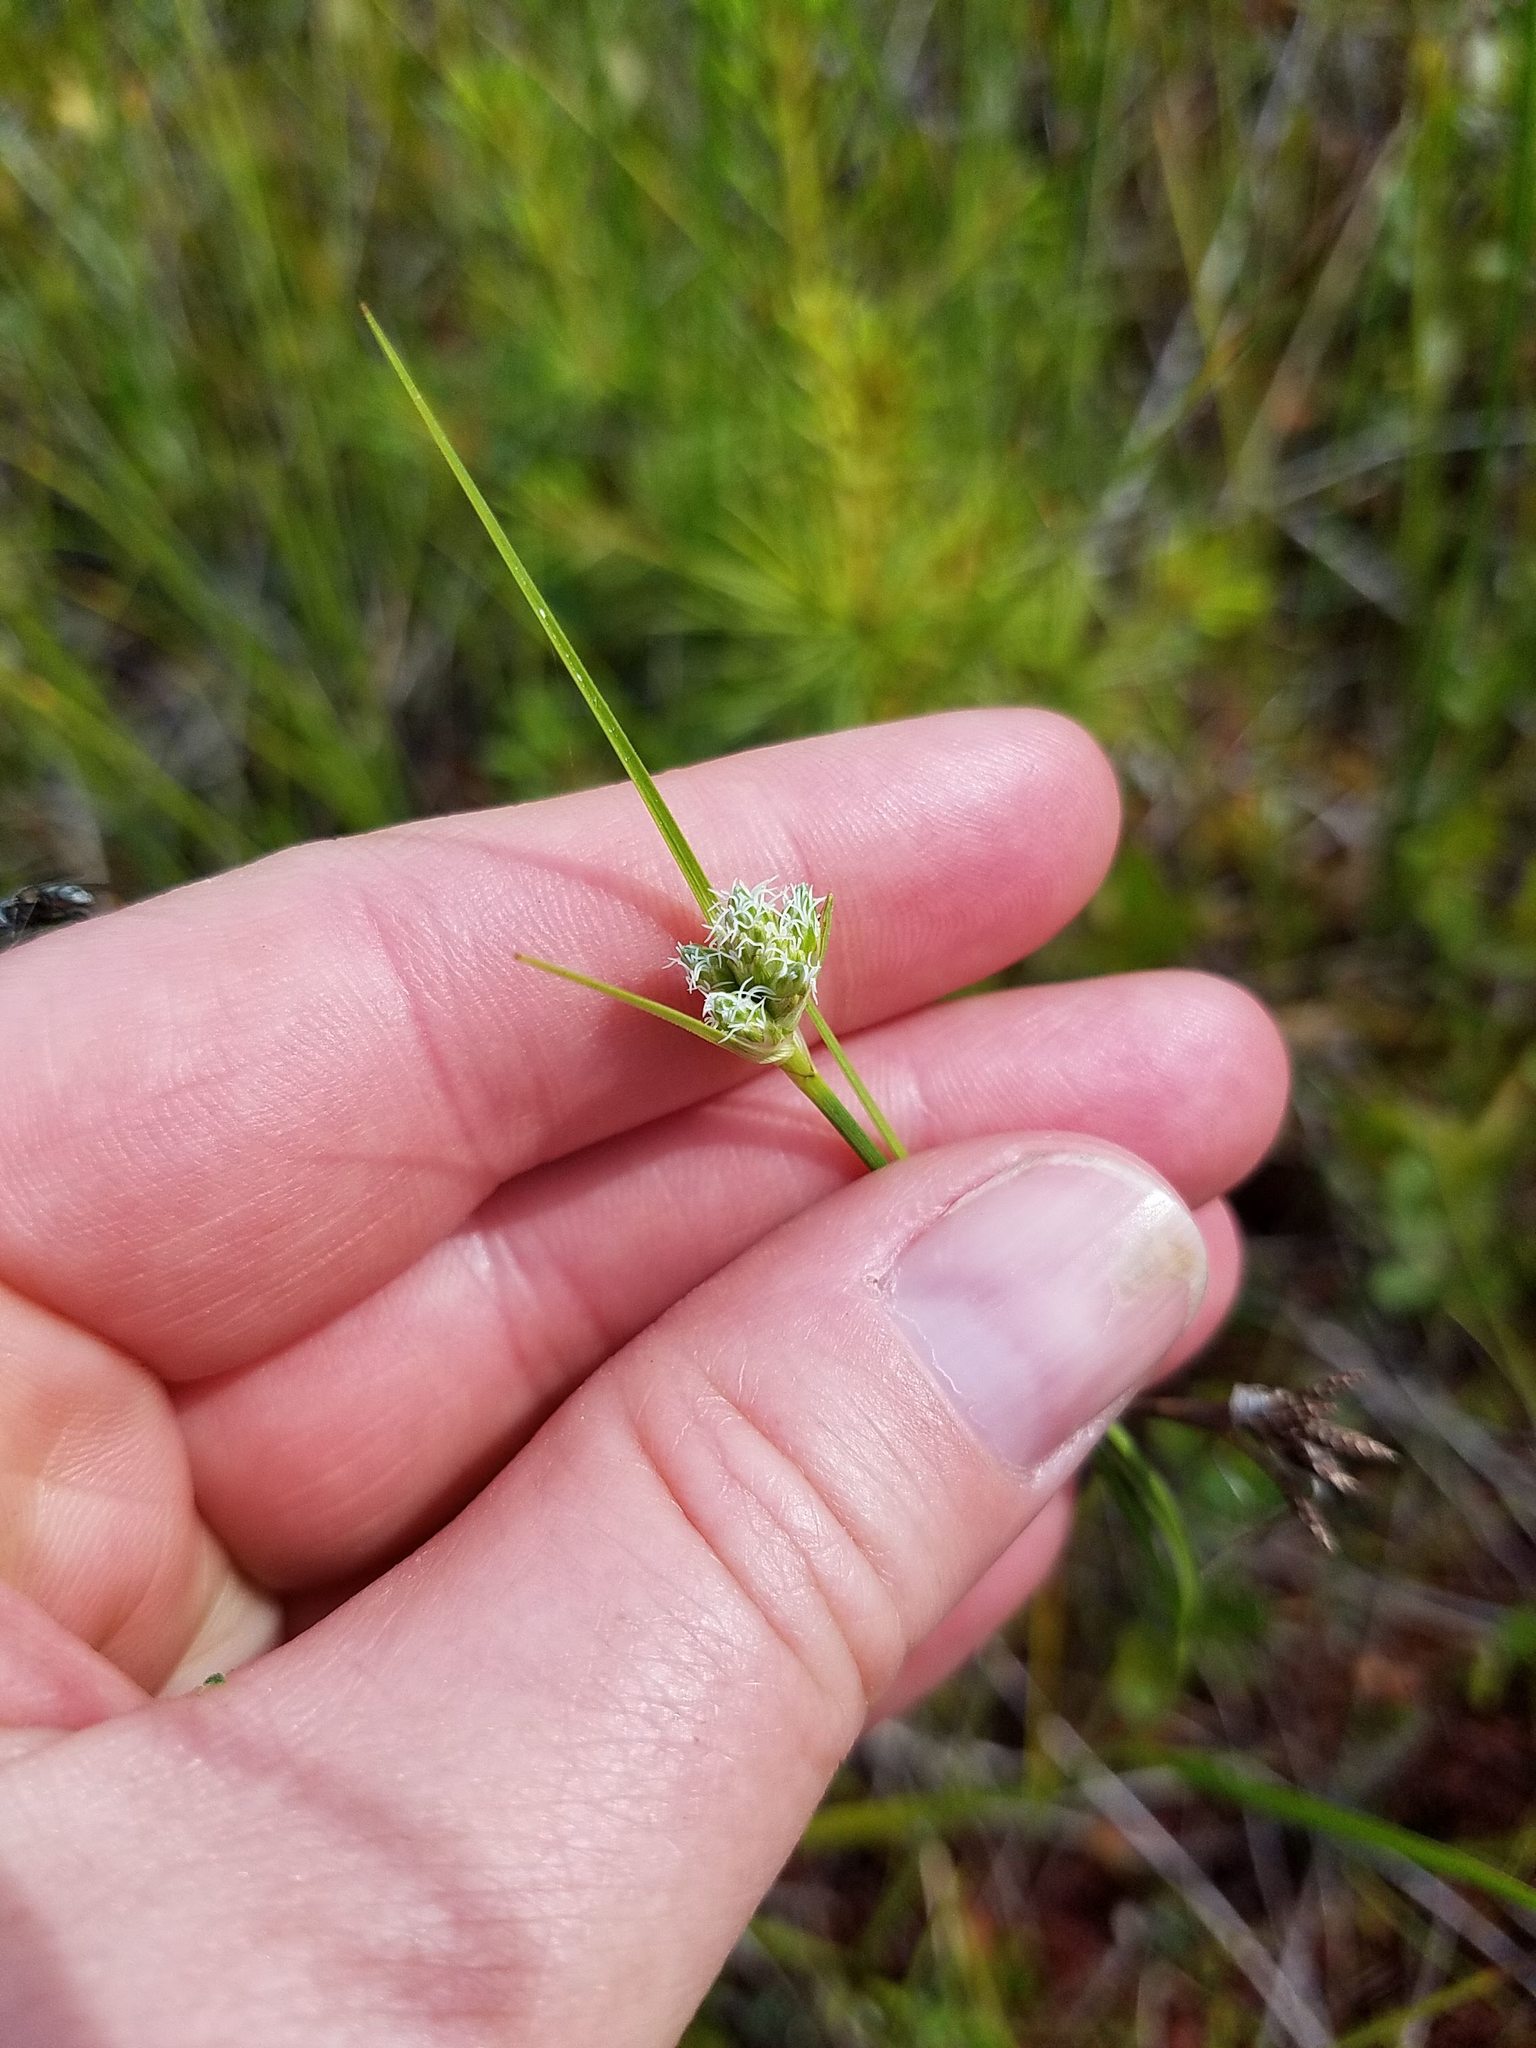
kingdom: Plantae
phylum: Tracheophyta
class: Liliopsida
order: Poales
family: Cyperaceae
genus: Rhynchospora
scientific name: Rhynchospora alba
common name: White beak-sedge
